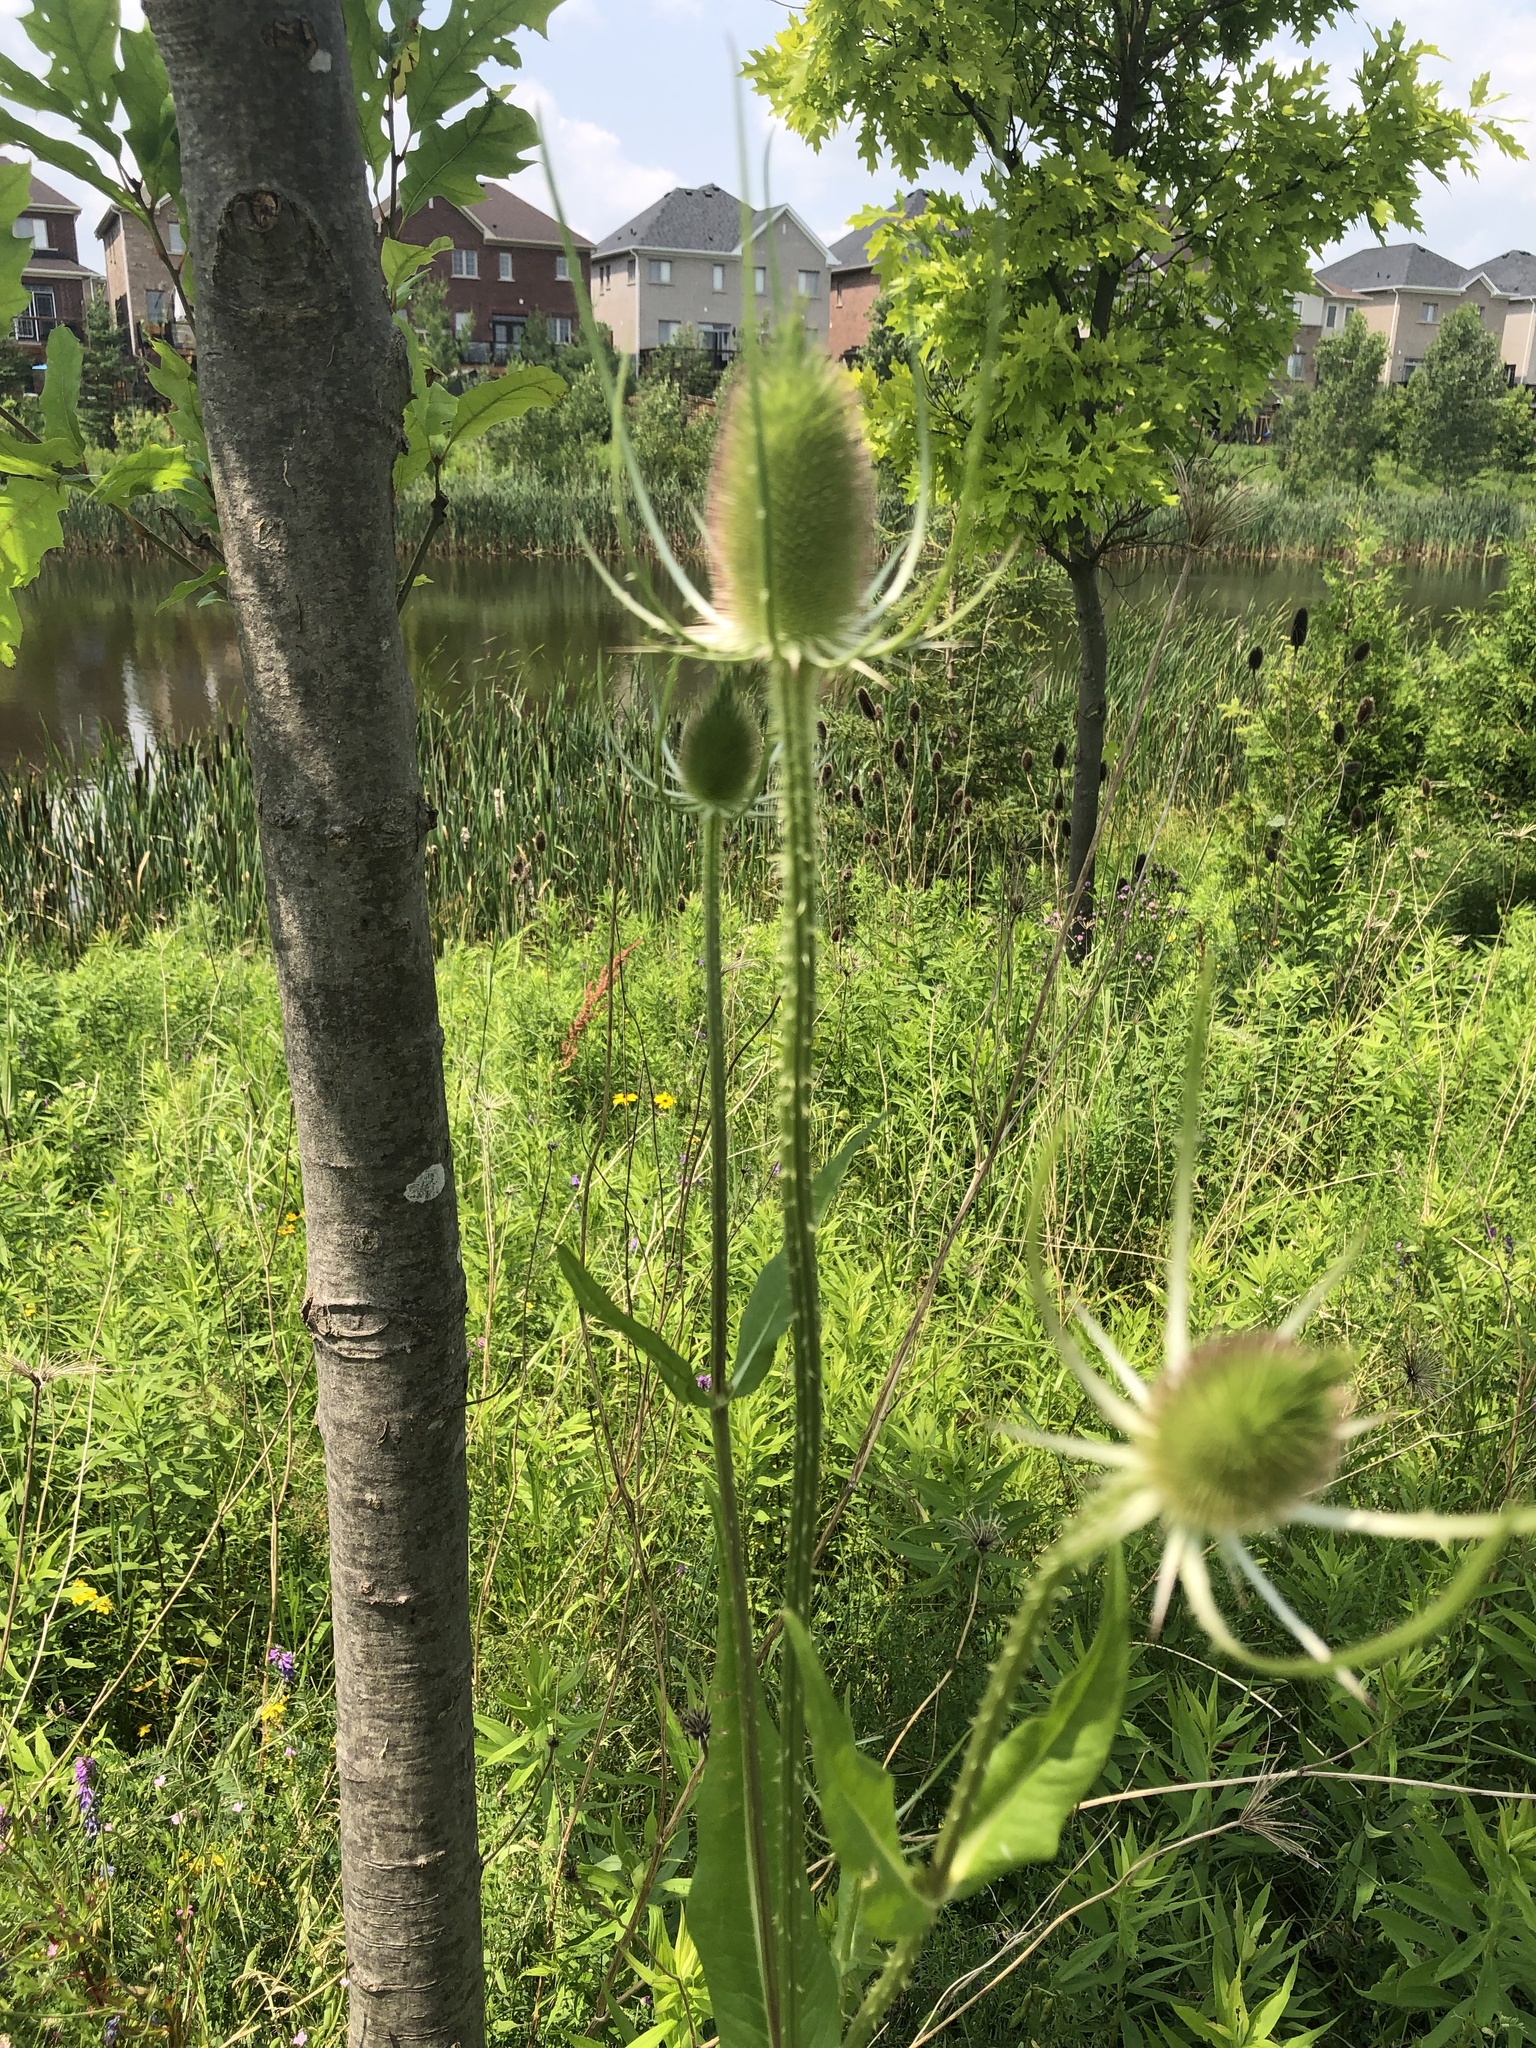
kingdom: Plantae
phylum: Tracheophyta
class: Magnoliopsida
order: Dipsacales
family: Caprifoliaceae
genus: Dipsacus
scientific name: Dipsacus fullonum
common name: Teasel
